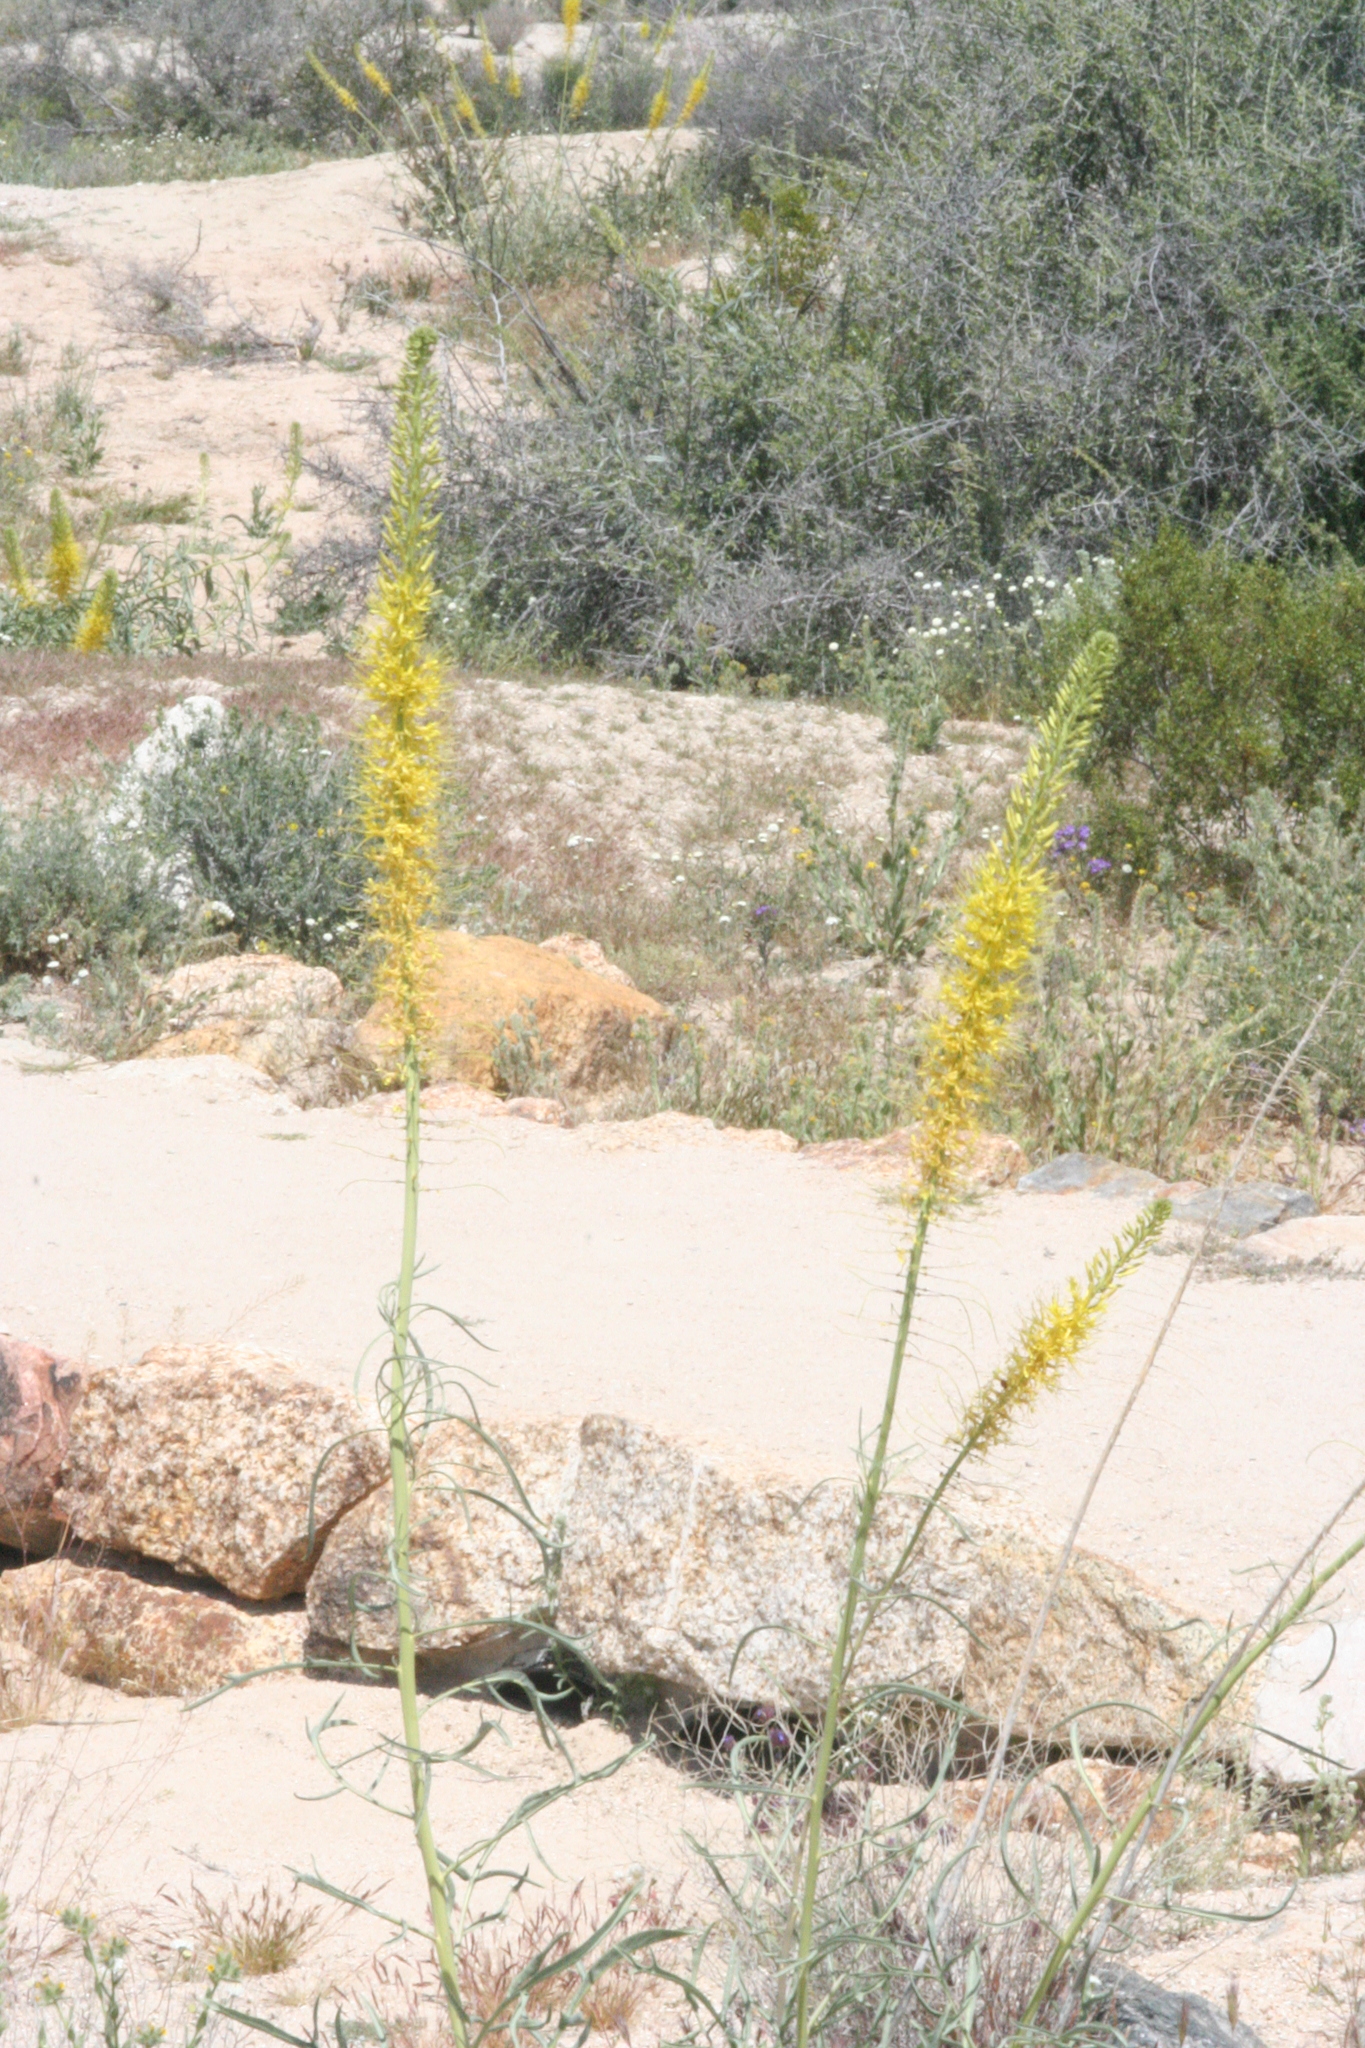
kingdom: Plantae
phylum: Tracheophyta
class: Magnoliopsida
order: Brassicales
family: Brassicaceae
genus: Stanleya
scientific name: Stanleya pinnata
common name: Prince's-plume
